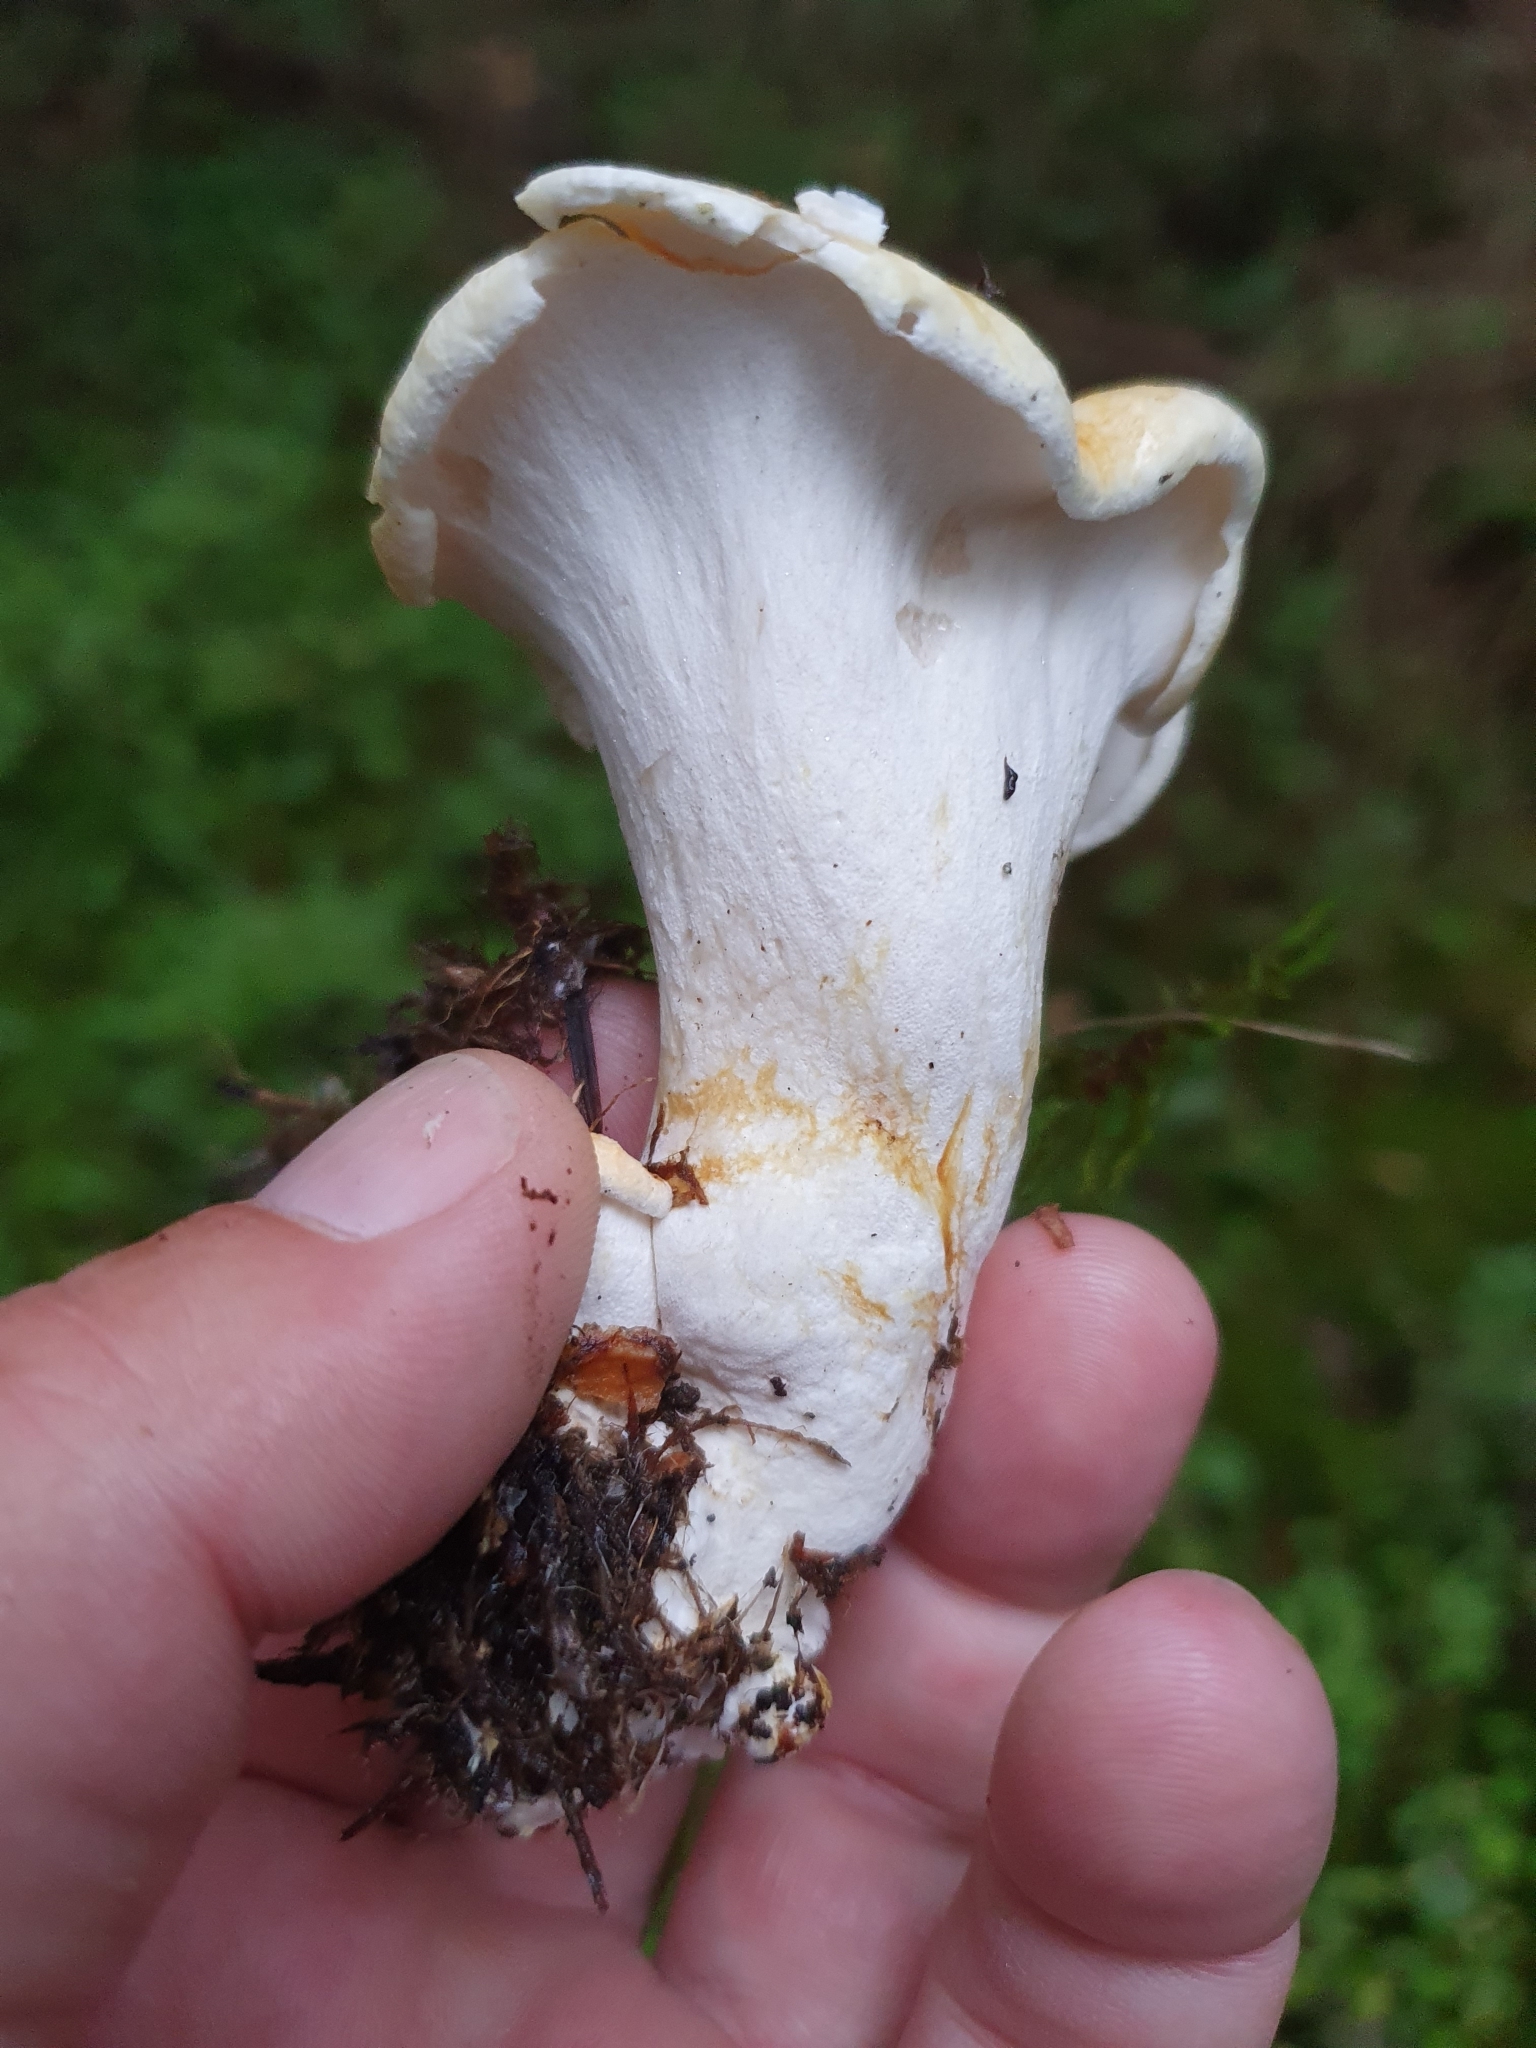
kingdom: Fungi
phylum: Basidiomycota
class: Agaricomycetes
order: Russulales
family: Albatrellaceae
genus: Albatrellopsis
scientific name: Albatrellopsis confluens
